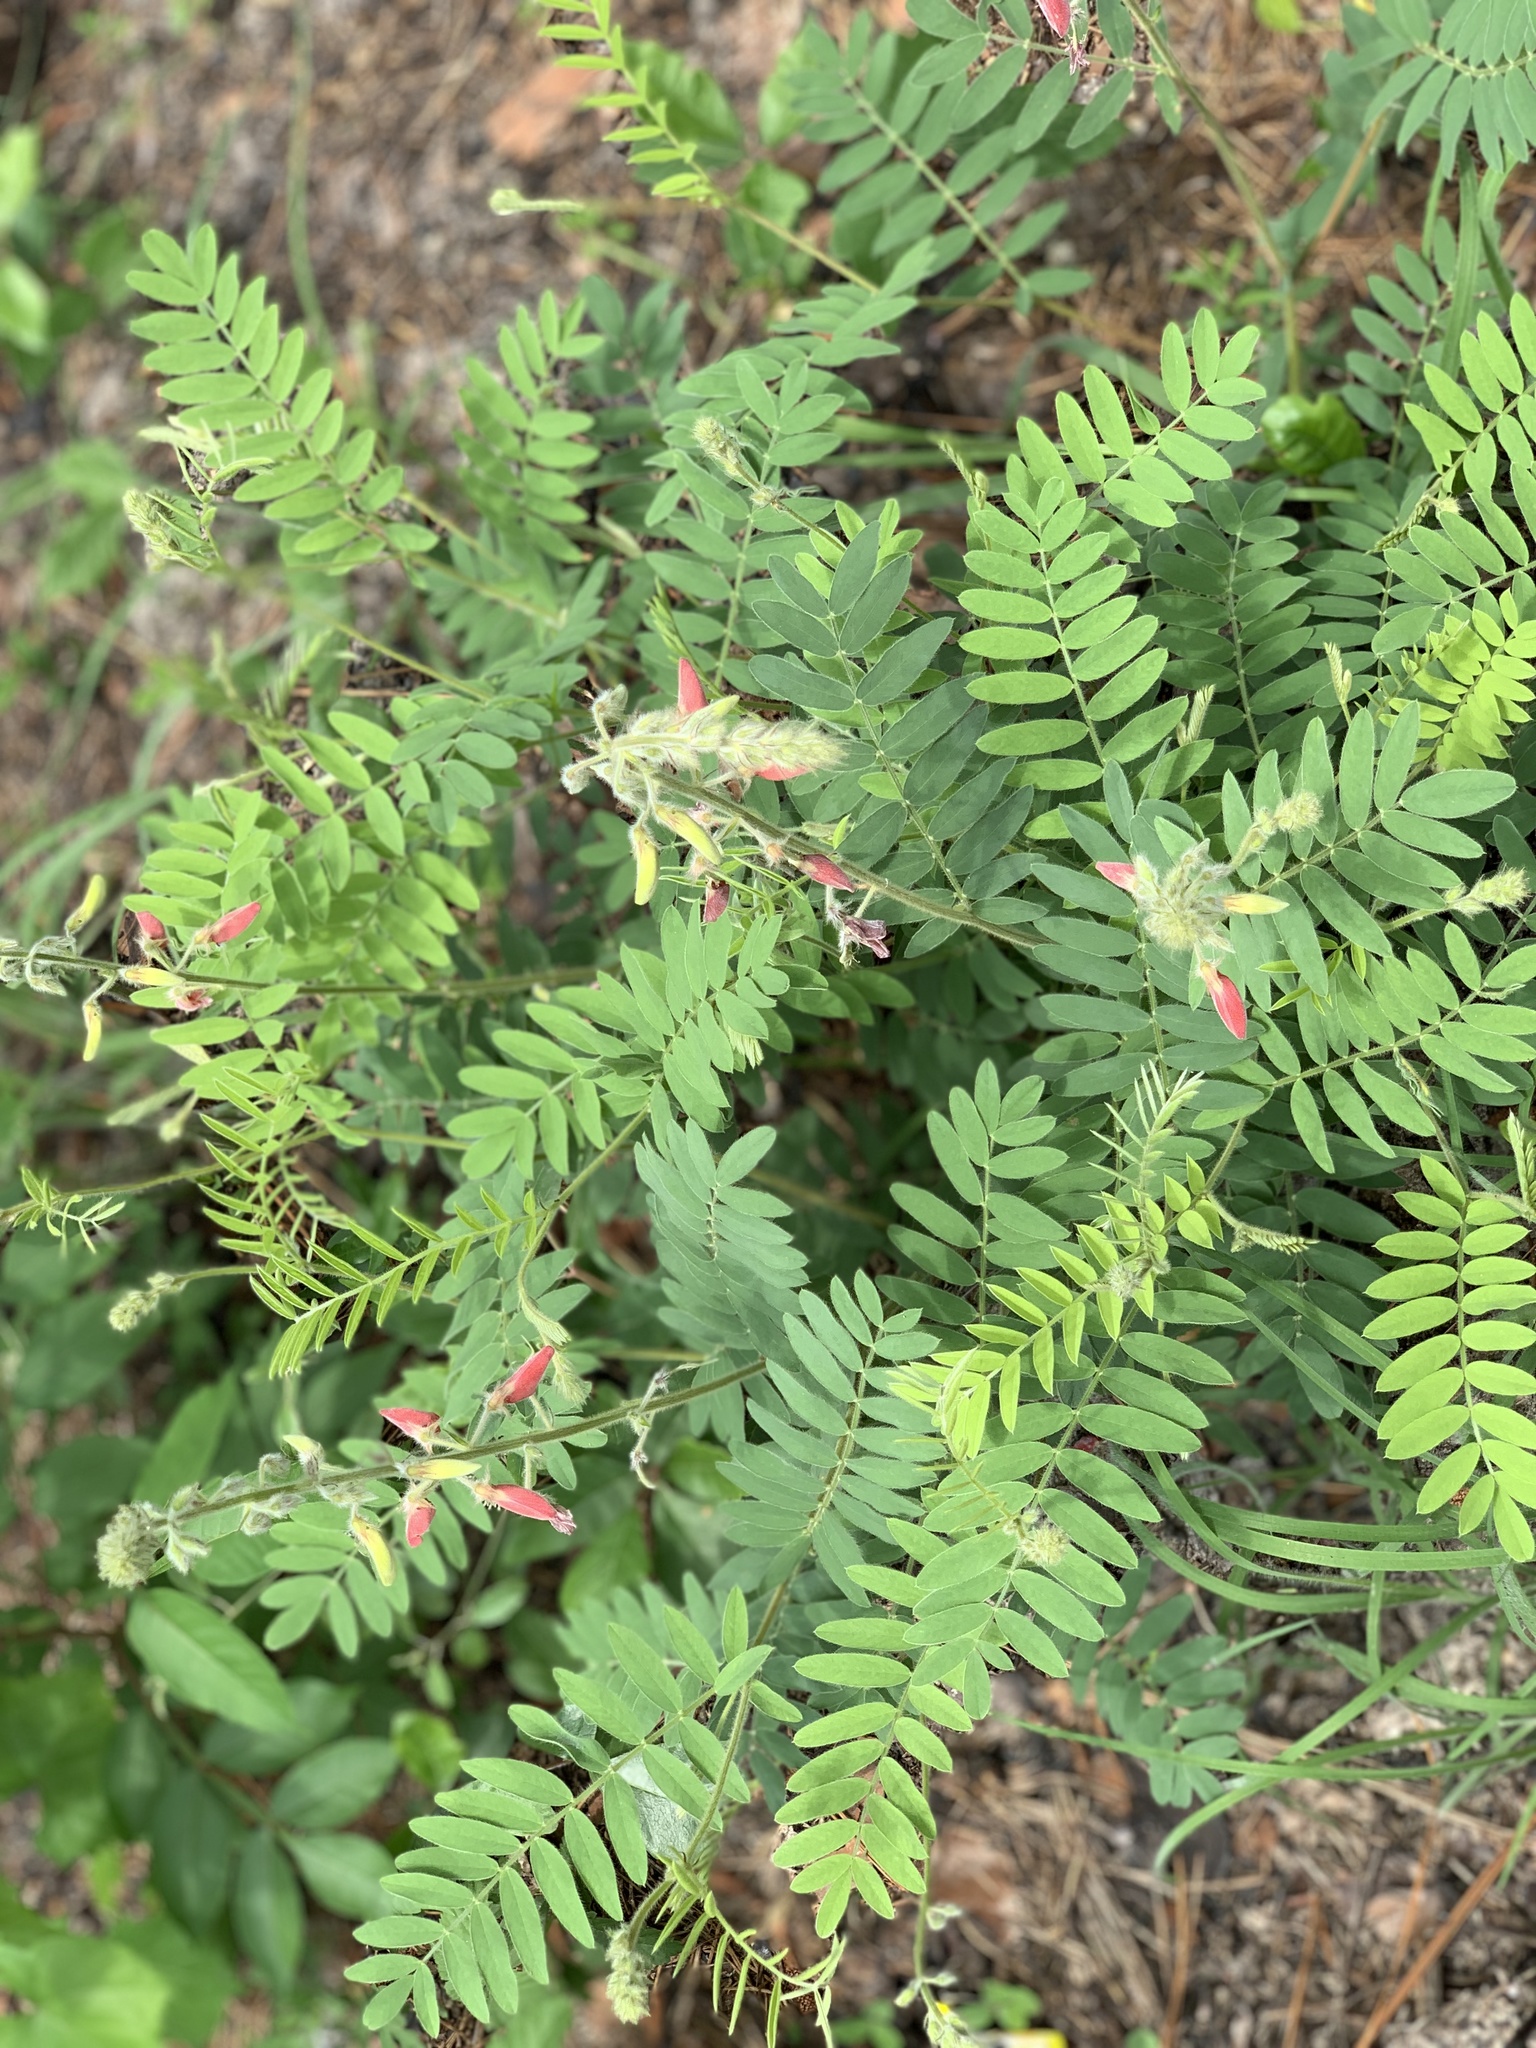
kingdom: Plantae
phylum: Tracheophyta
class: Magnoliopsida
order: Fabales
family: Fabaceae
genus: Tephrosia
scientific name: Tephrosia onobrychoides
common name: Multi-bloom hoary-pea
